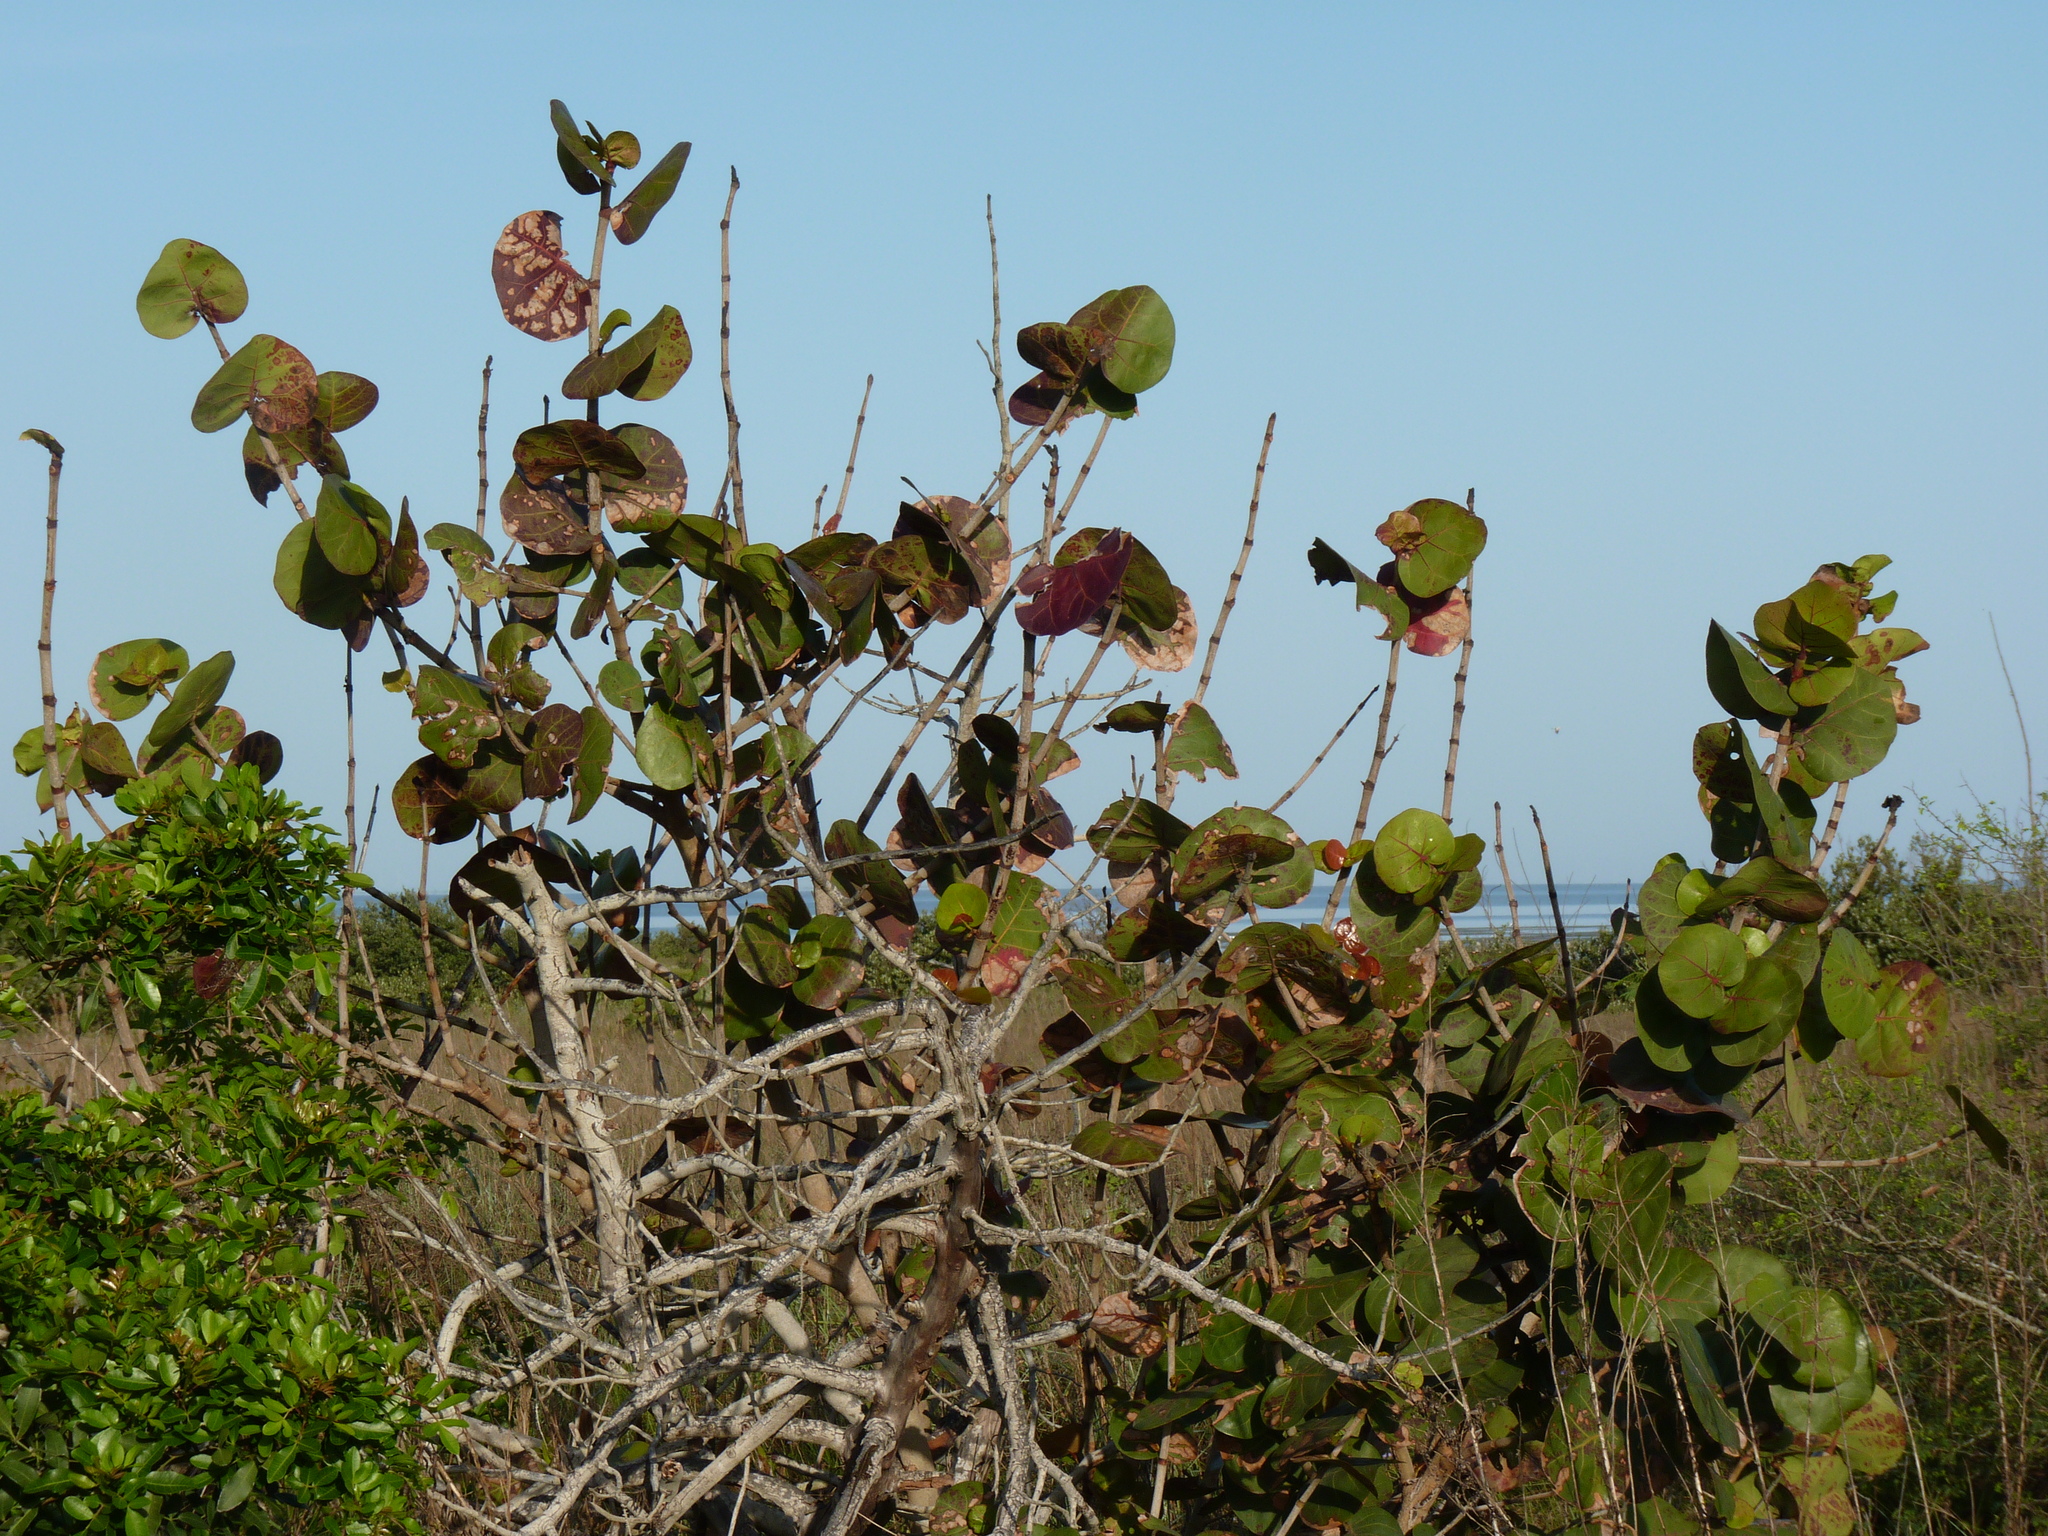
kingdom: Plantae
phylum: Tracheophyta
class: Magnoliopsida
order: Caryophyllales
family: Polygonaceae
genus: Coccoloba
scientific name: Coccoloba uvifera
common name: Seagrape
